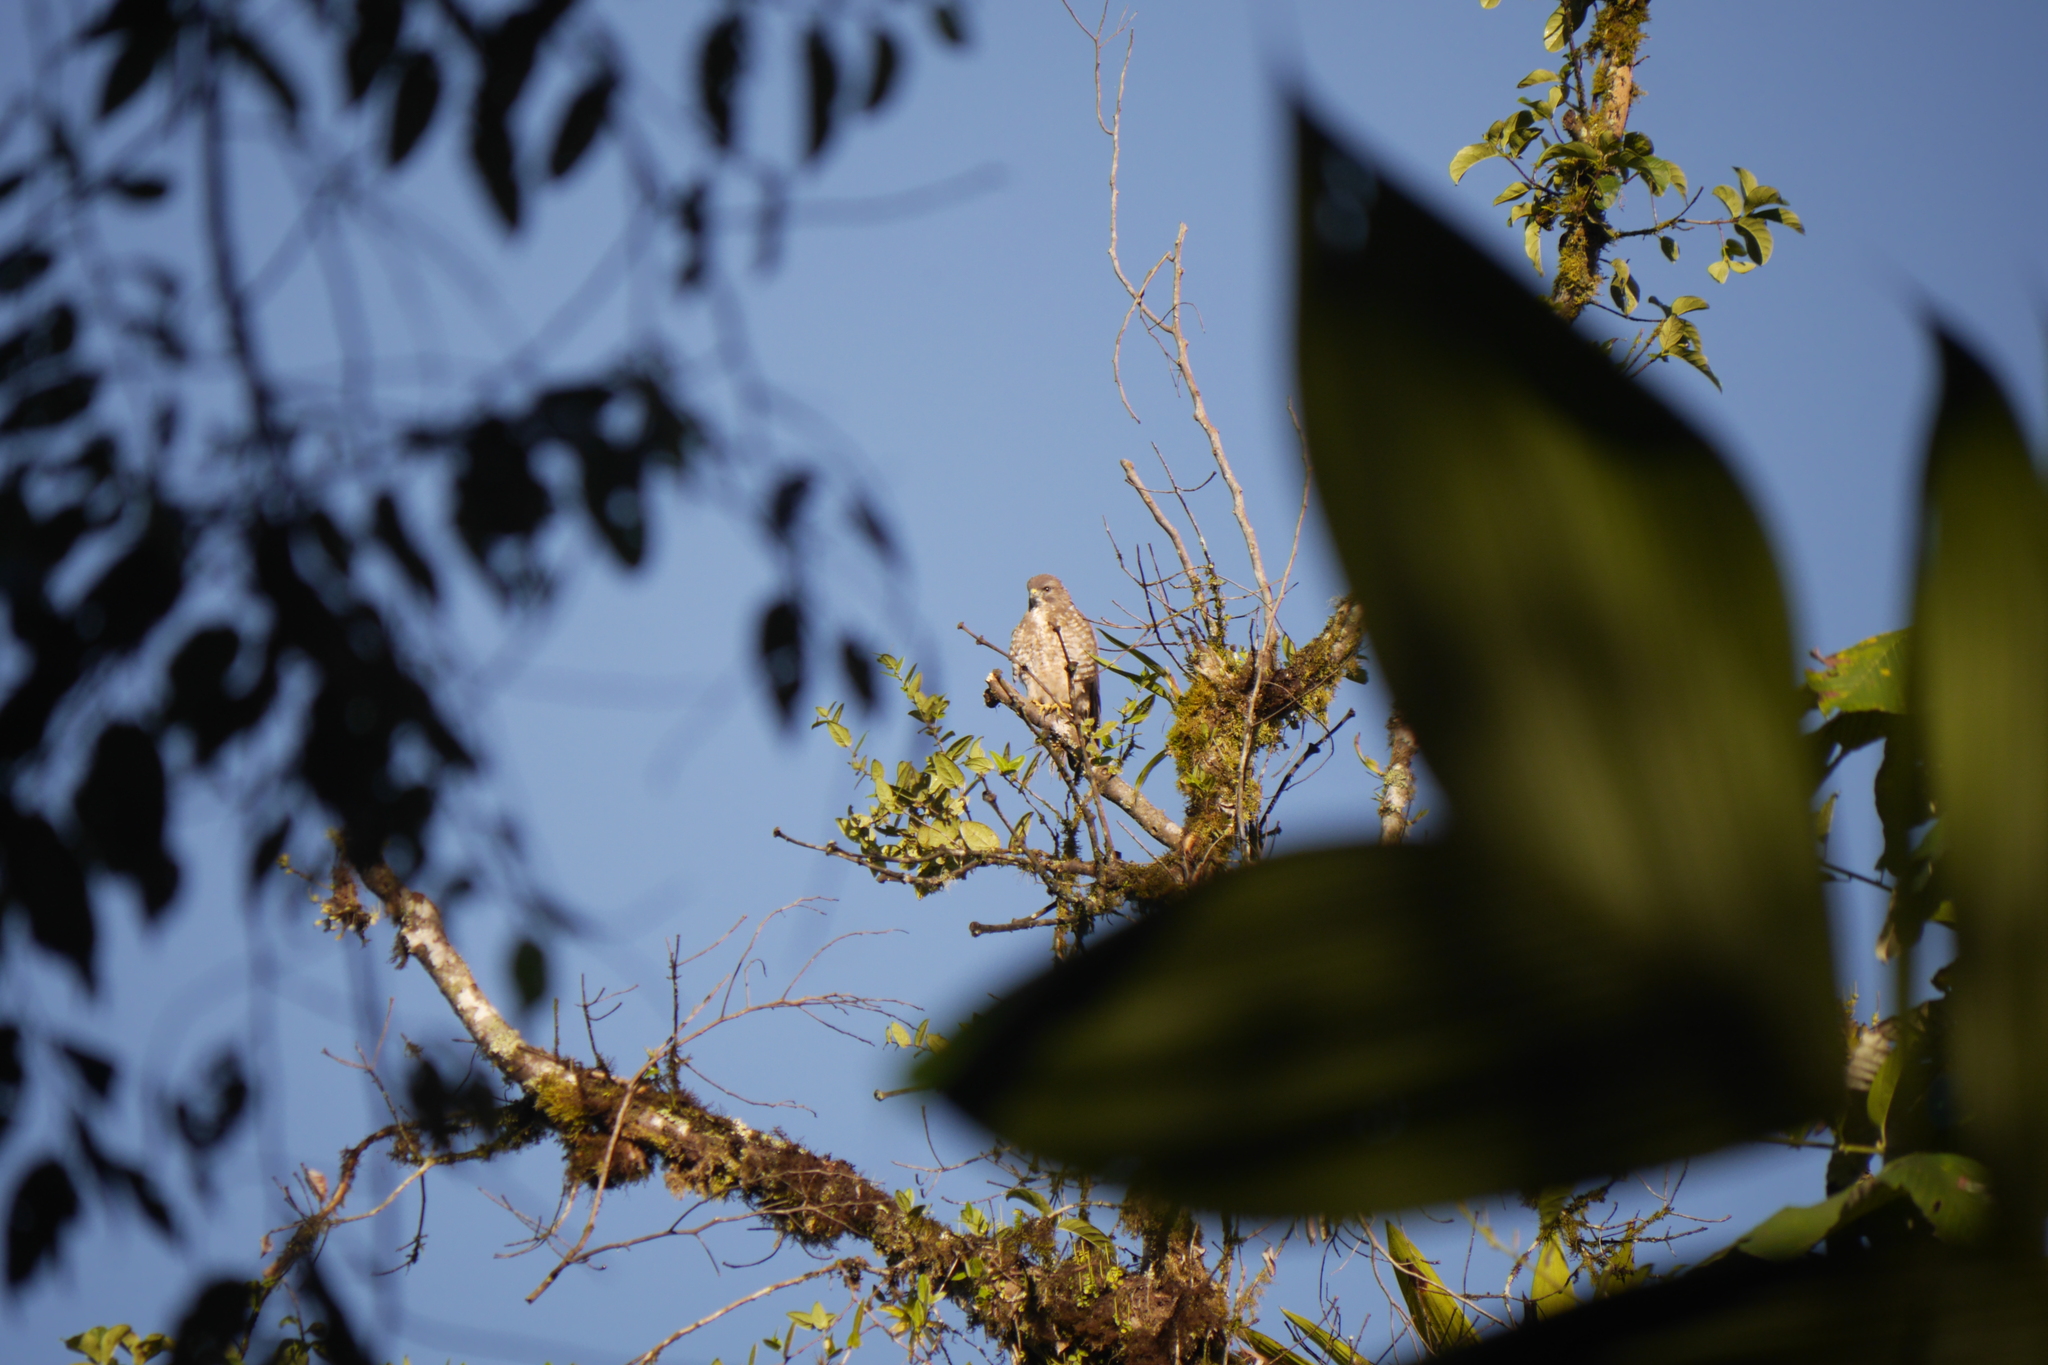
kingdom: Animalia
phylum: Chordata
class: Aves
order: Accipitriformes
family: Accipitridae
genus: Buteo
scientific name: Buteo platypterus
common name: Broad-winged hawk
